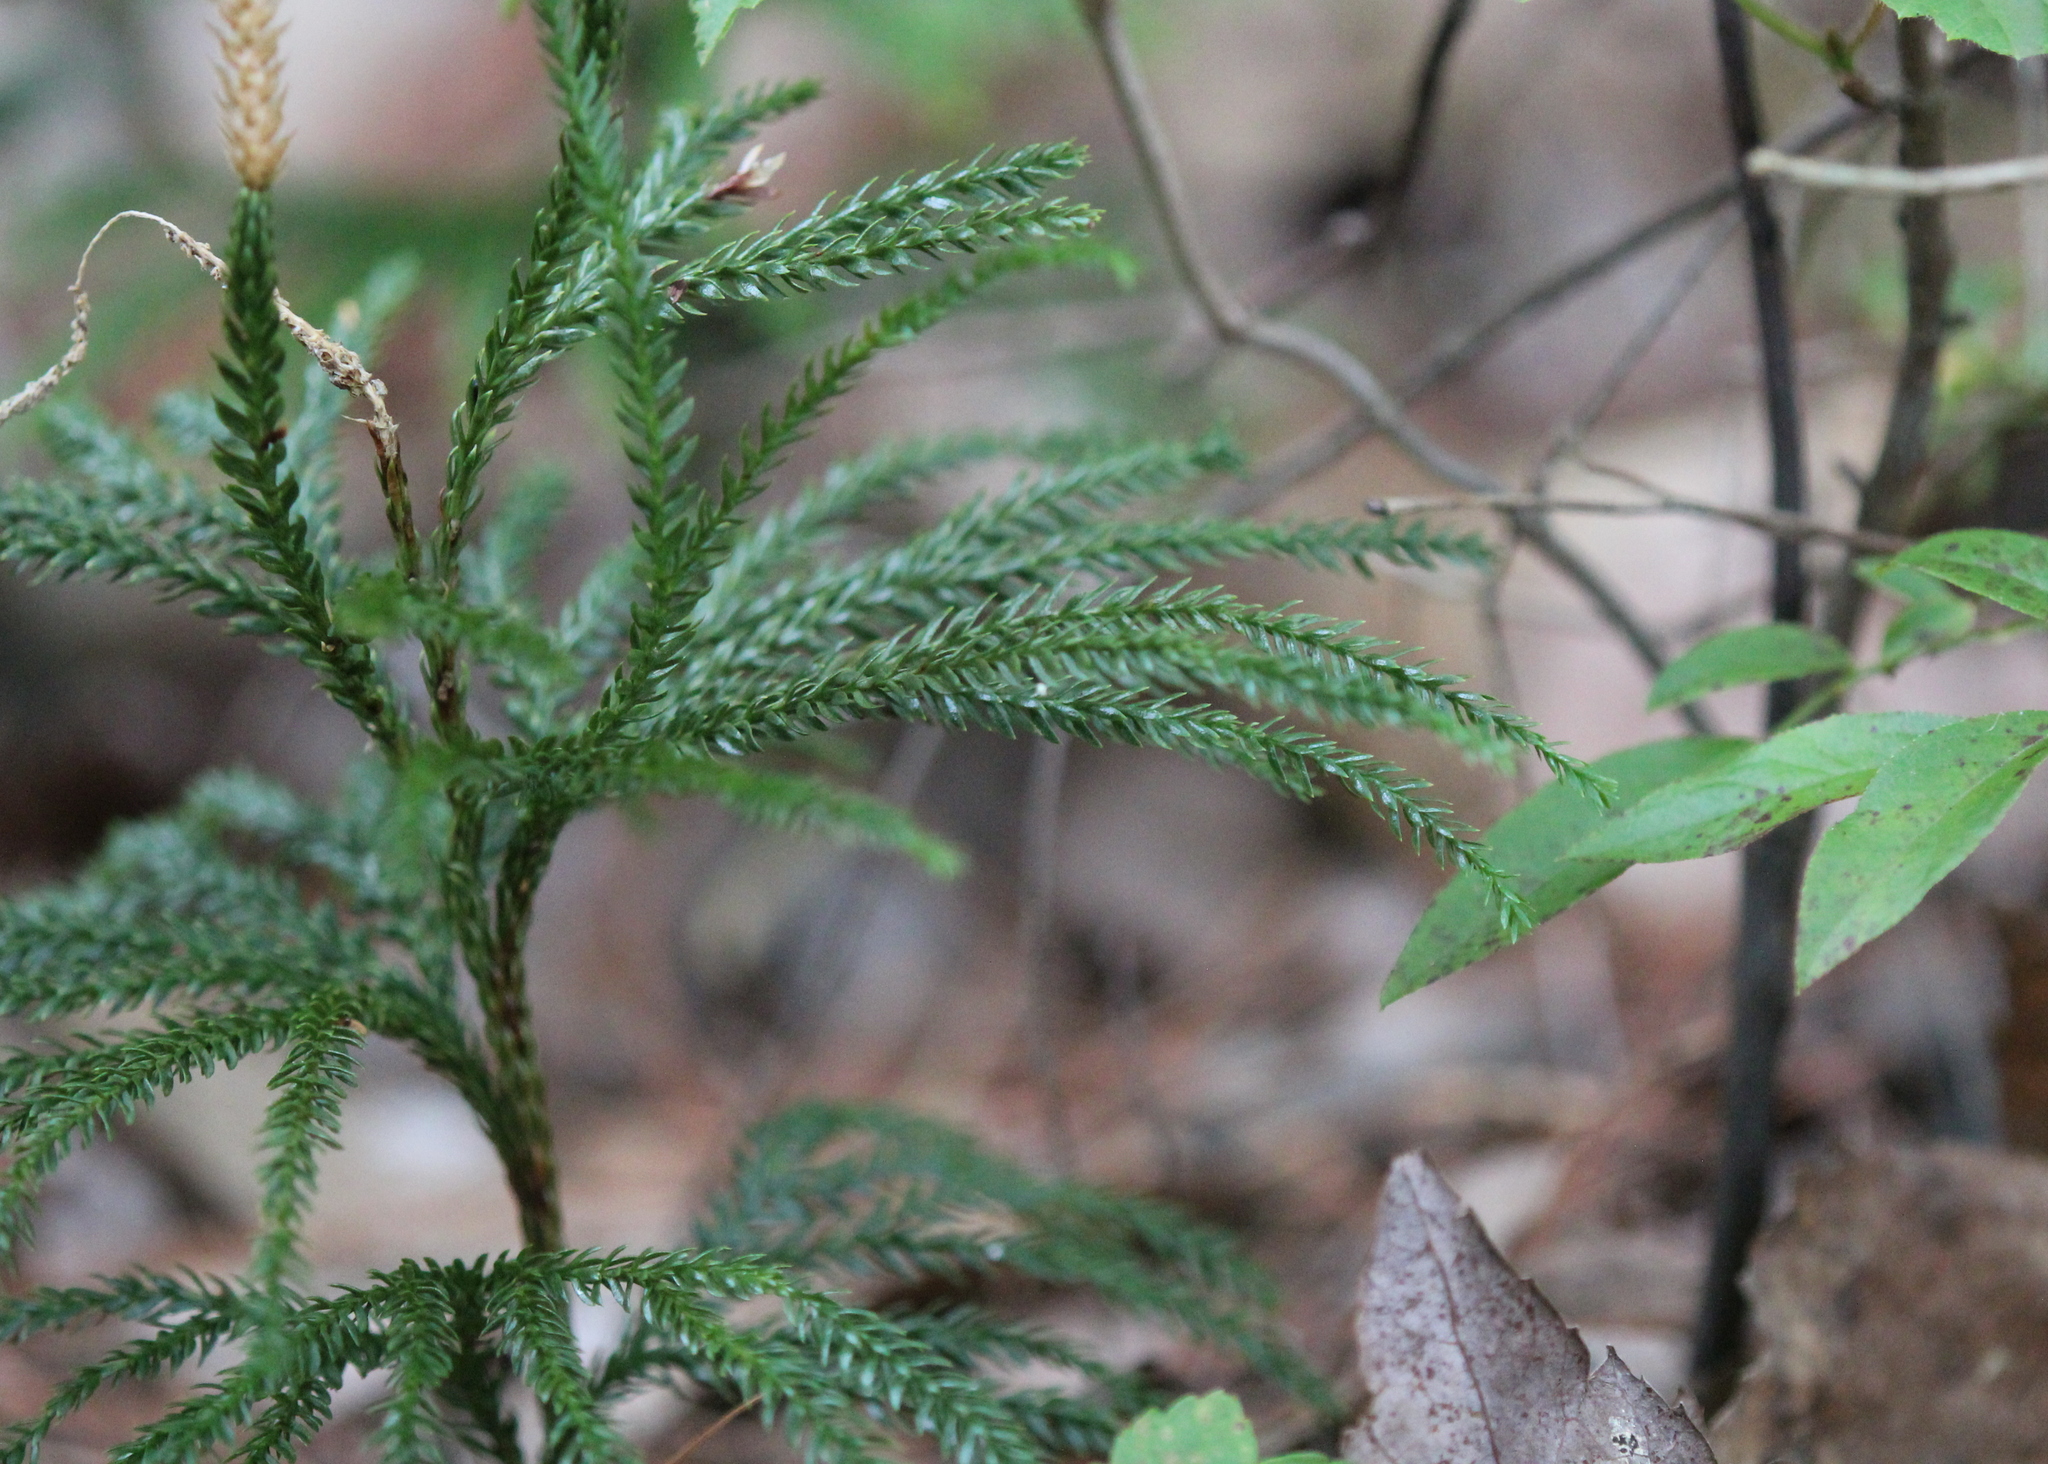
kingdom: Plantae
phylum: Tracheophyta
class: Lycopodiopsida
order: Lycopodiales
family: Lycopodiaceae
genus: Dendrolycopodium
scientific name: Dendrolycopodium obscurum
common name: Common ground-pine
